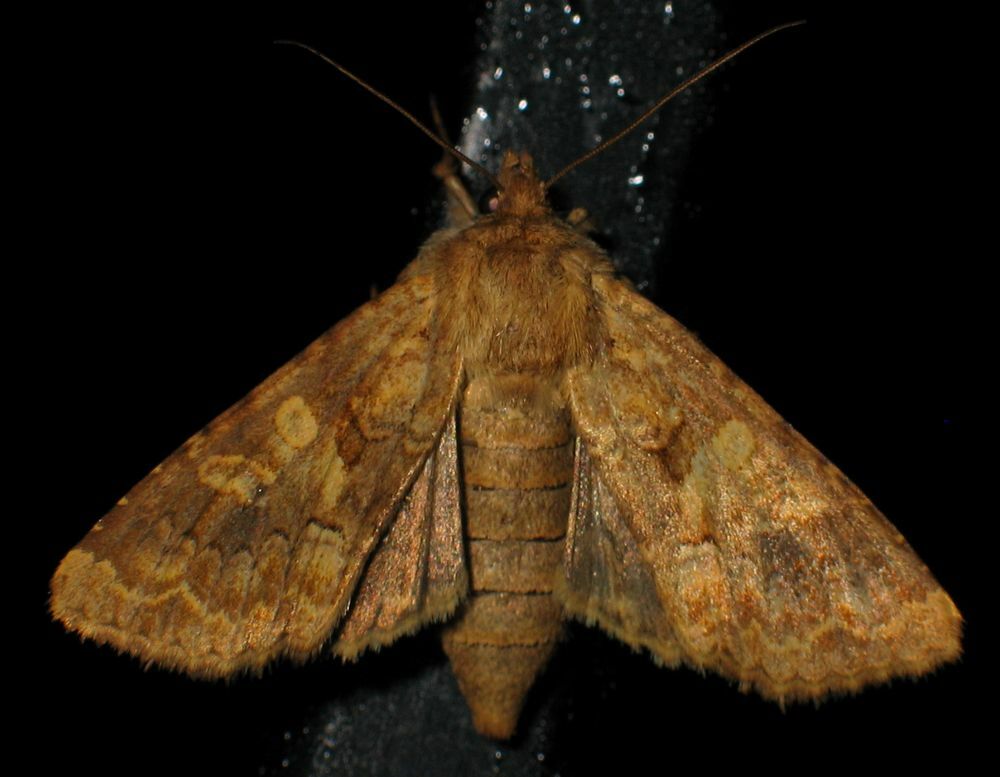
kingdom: Animalia
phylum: Arthropoda
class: Insecta
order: Lepidoptera
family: Noctuidae
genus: Conisania
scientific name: Conisania luteago
